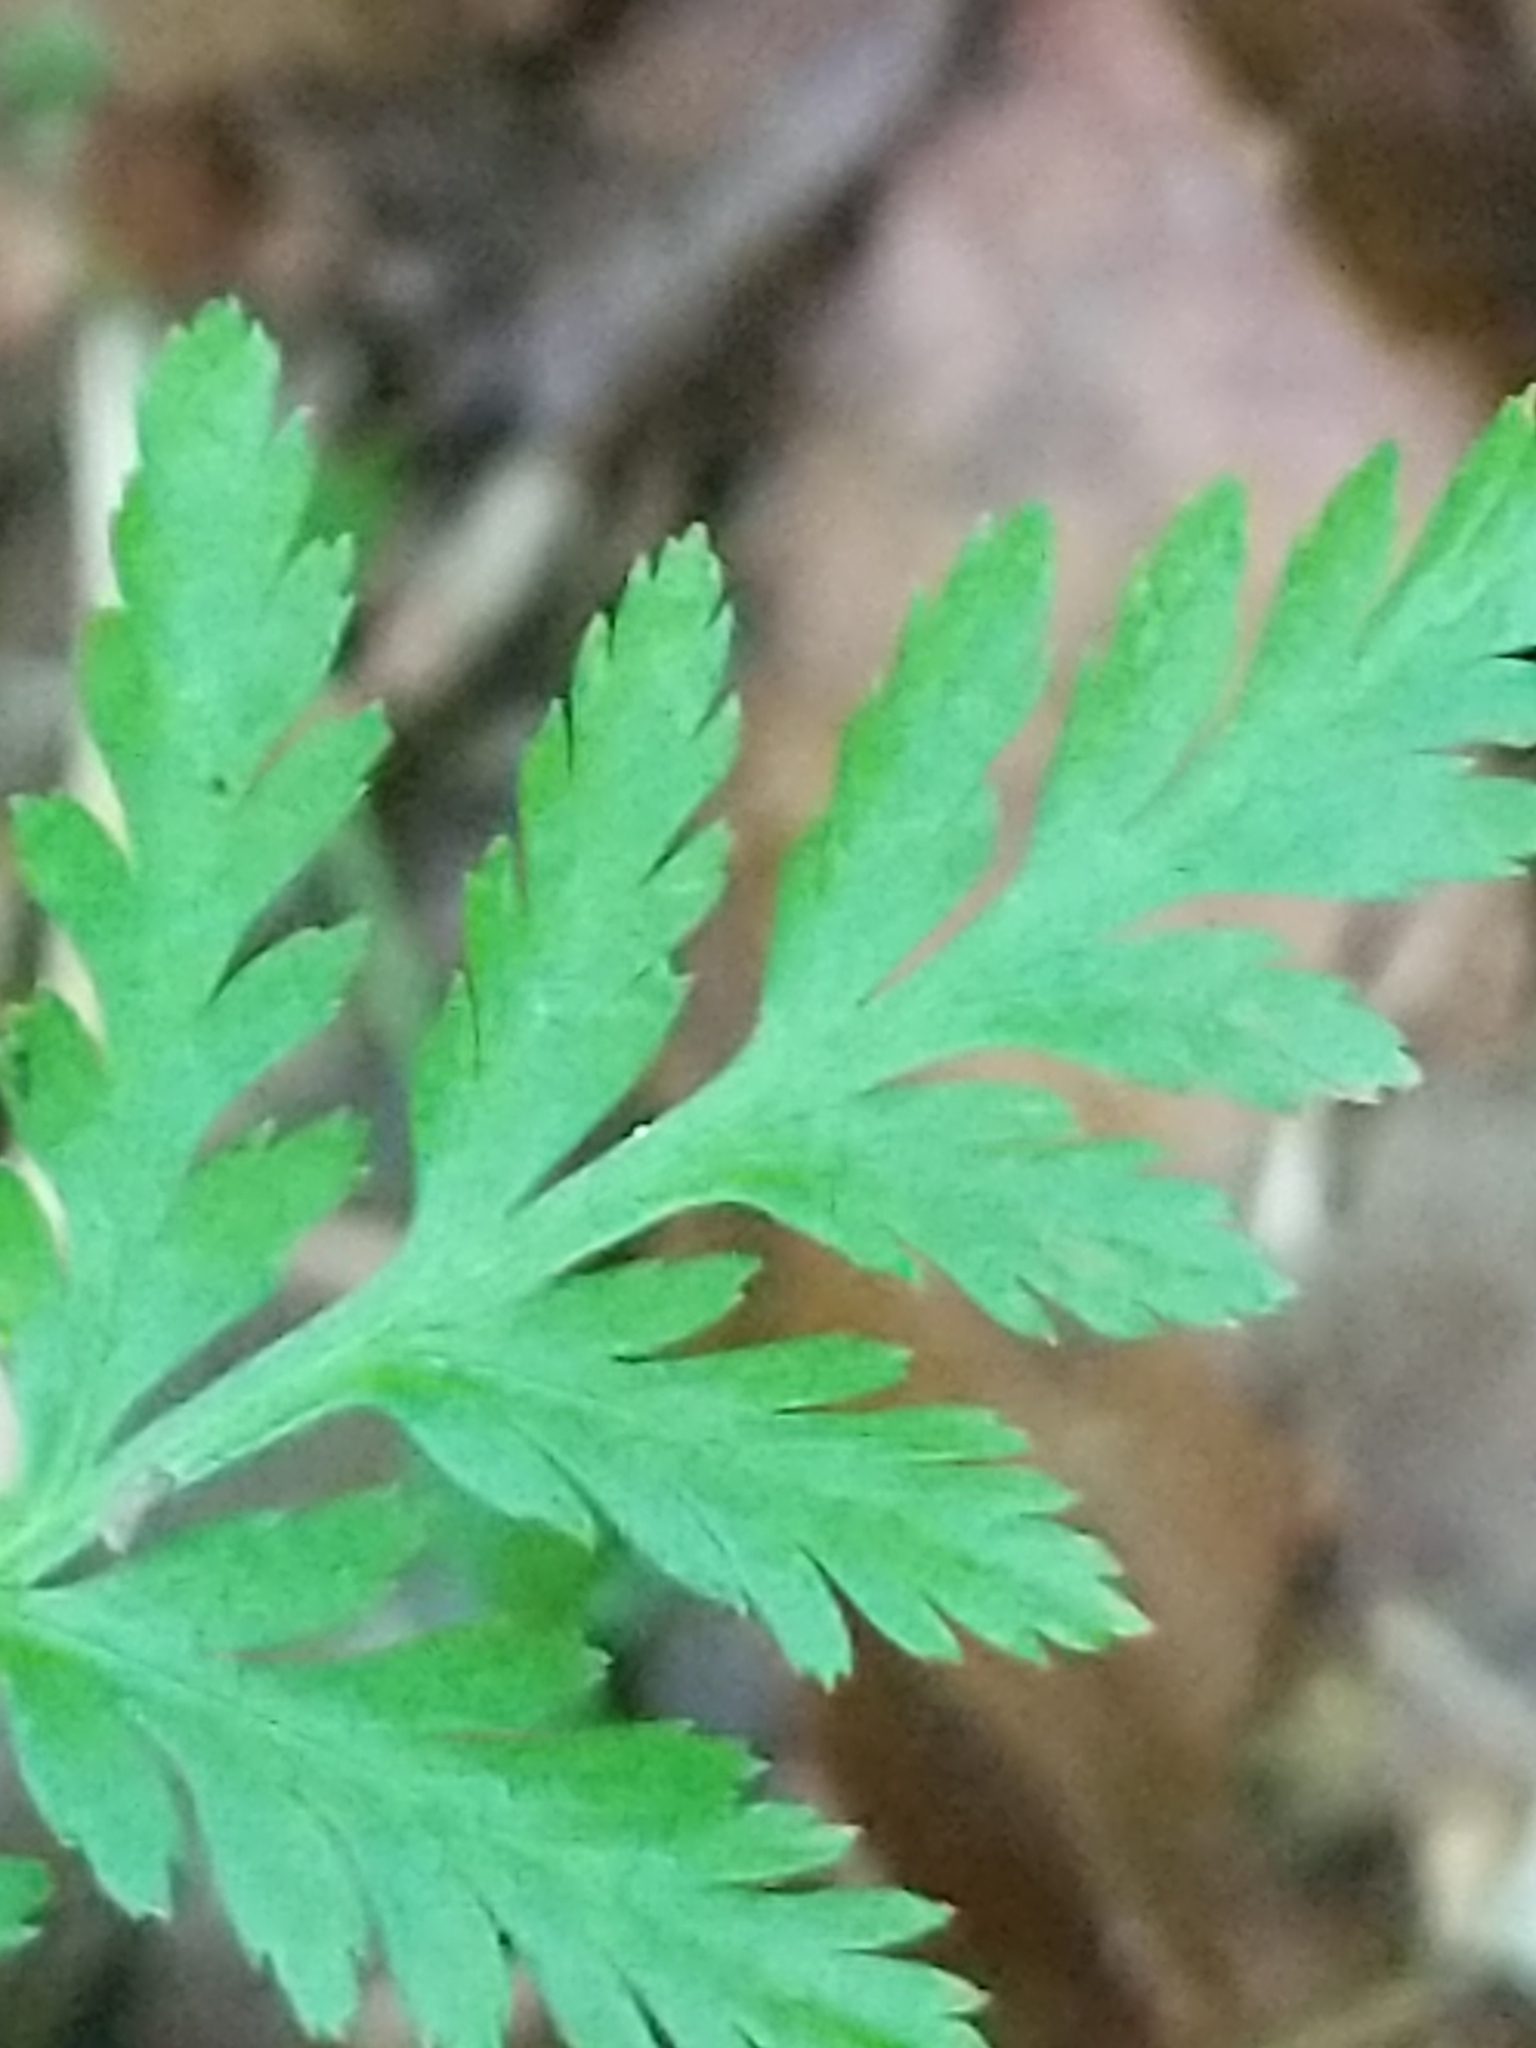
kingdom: Plantae
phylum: Tracheophyta
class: Polypodiopsida
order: Ophioglossales
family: Ophioglossaceae
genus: Botrypus
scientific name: Botrypus virginianus
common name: Common grapefern
